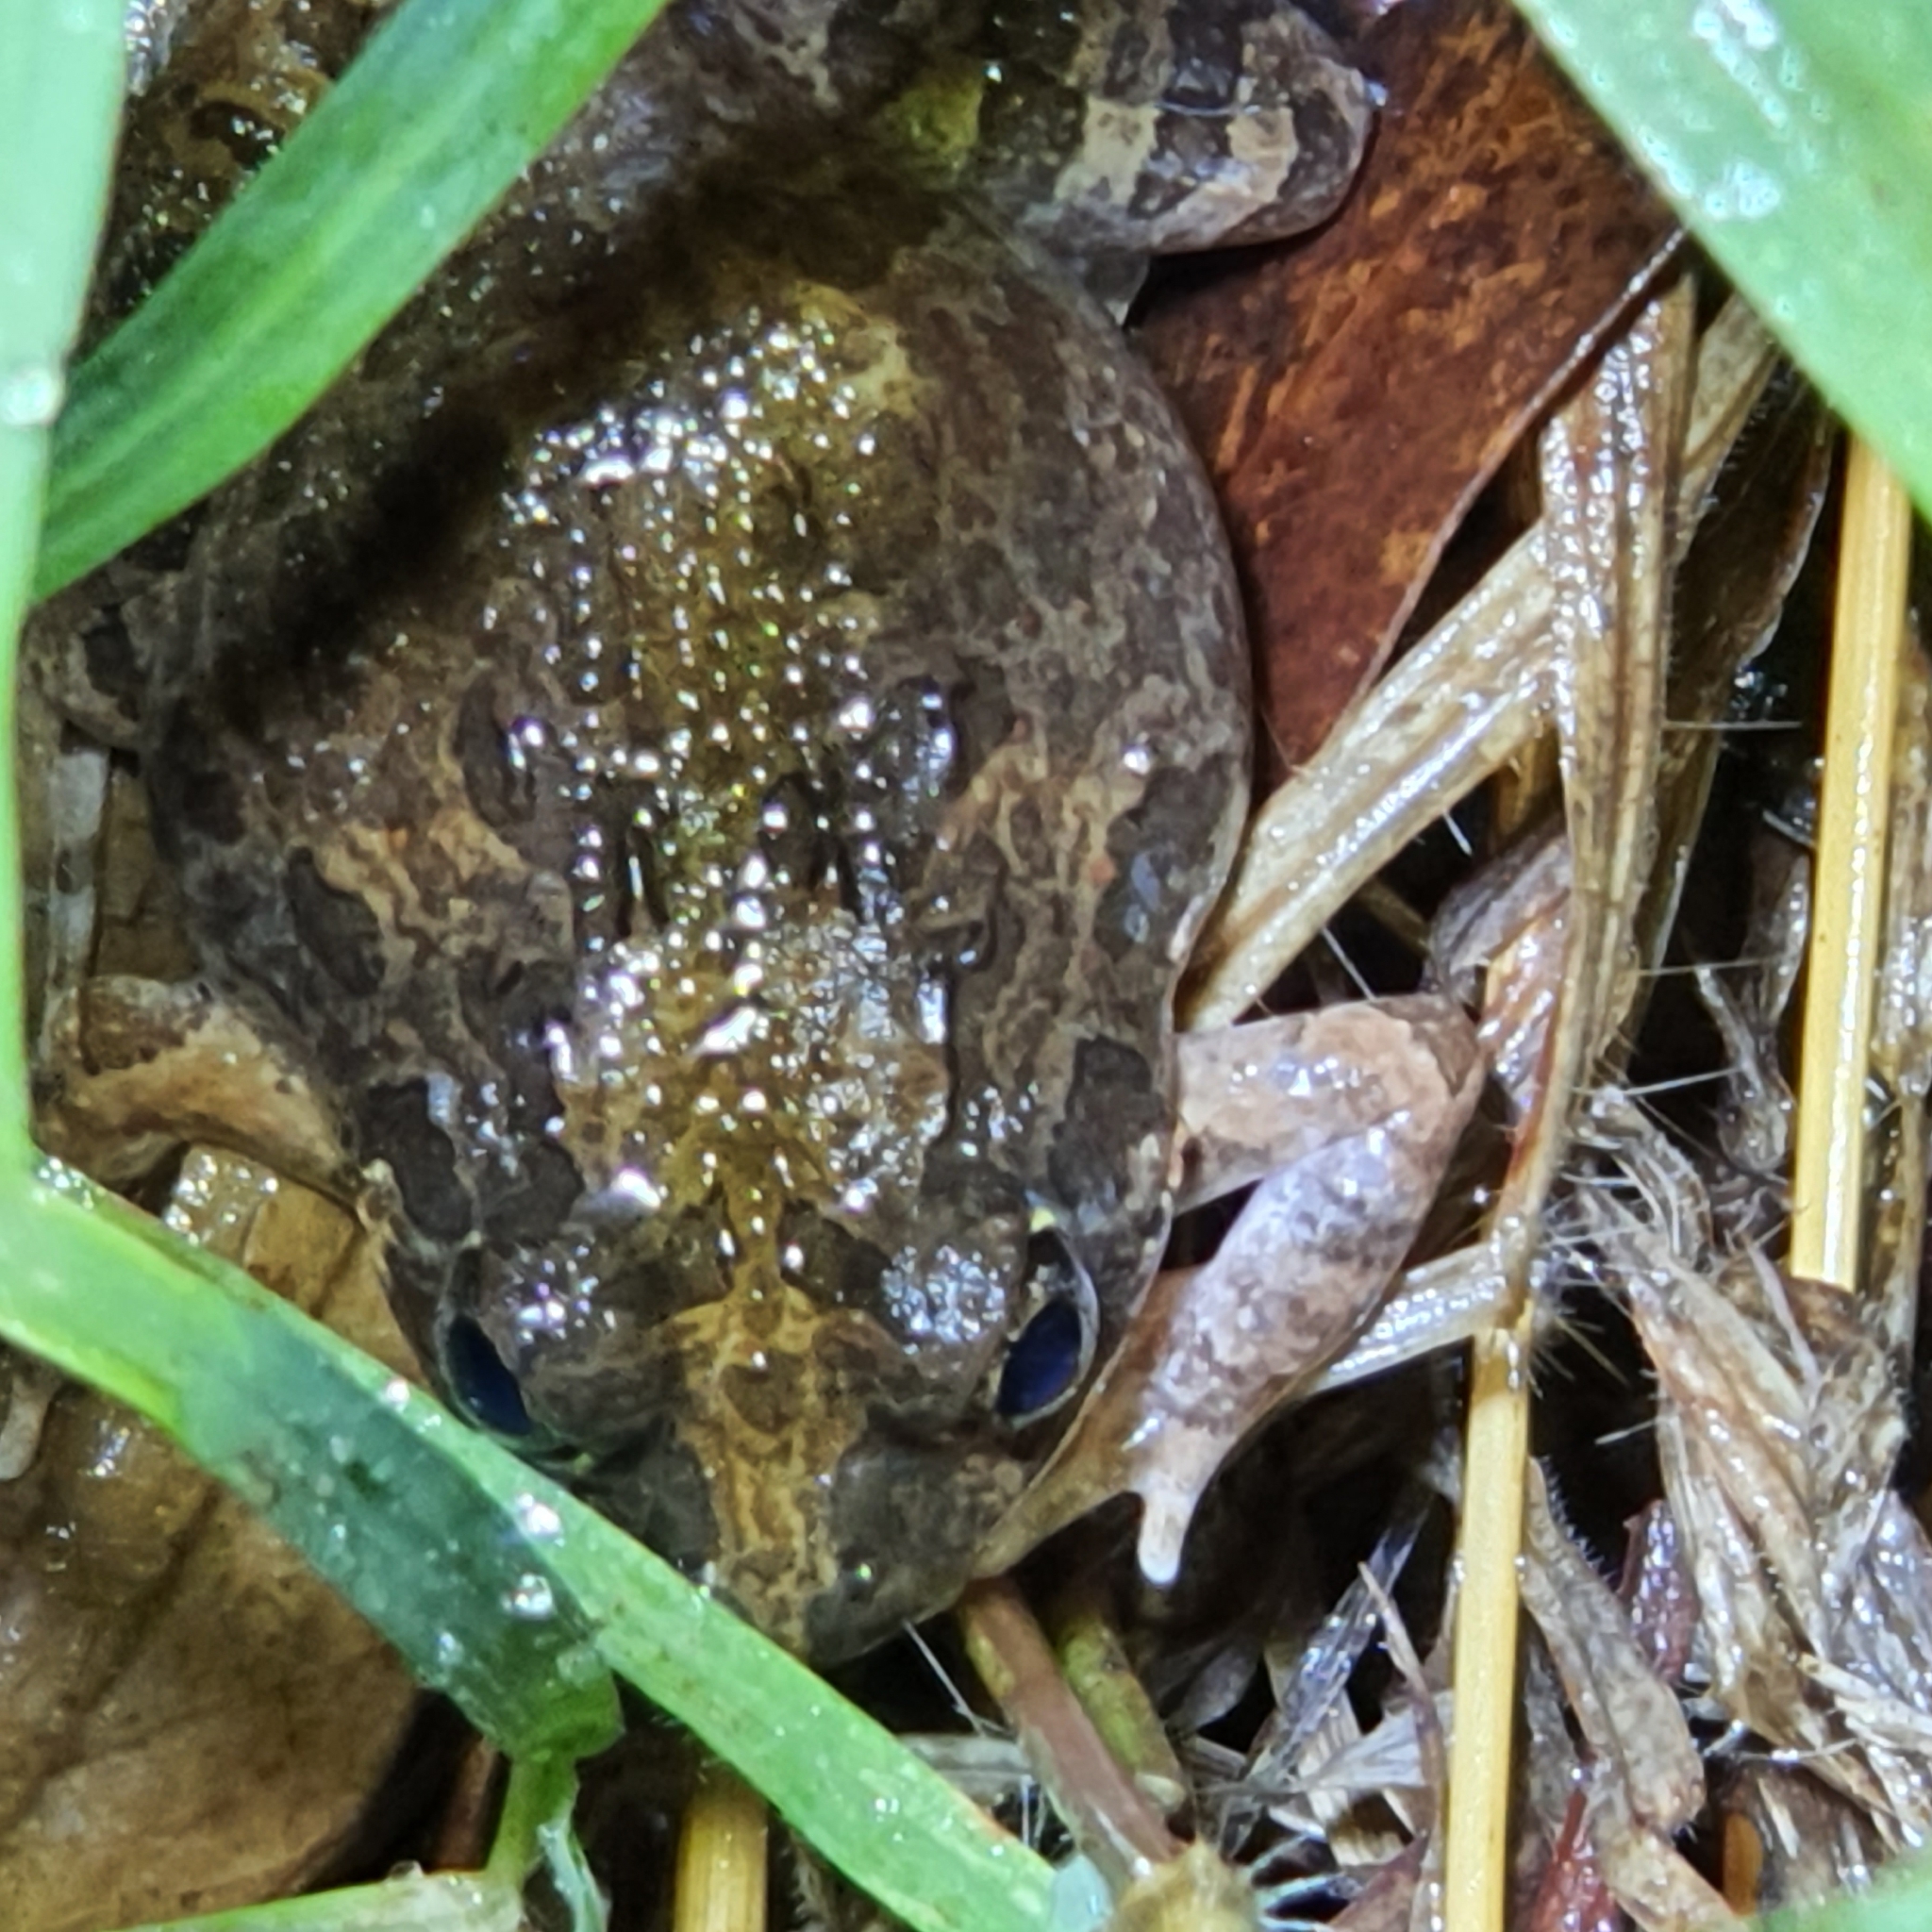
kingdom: Animalia
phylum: Chordata
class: Amphibia
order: Anura
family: Limnodynastidae
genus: Platyplectrum
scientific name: Platyplectrum ornatum
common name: Ornate burrowing frog
